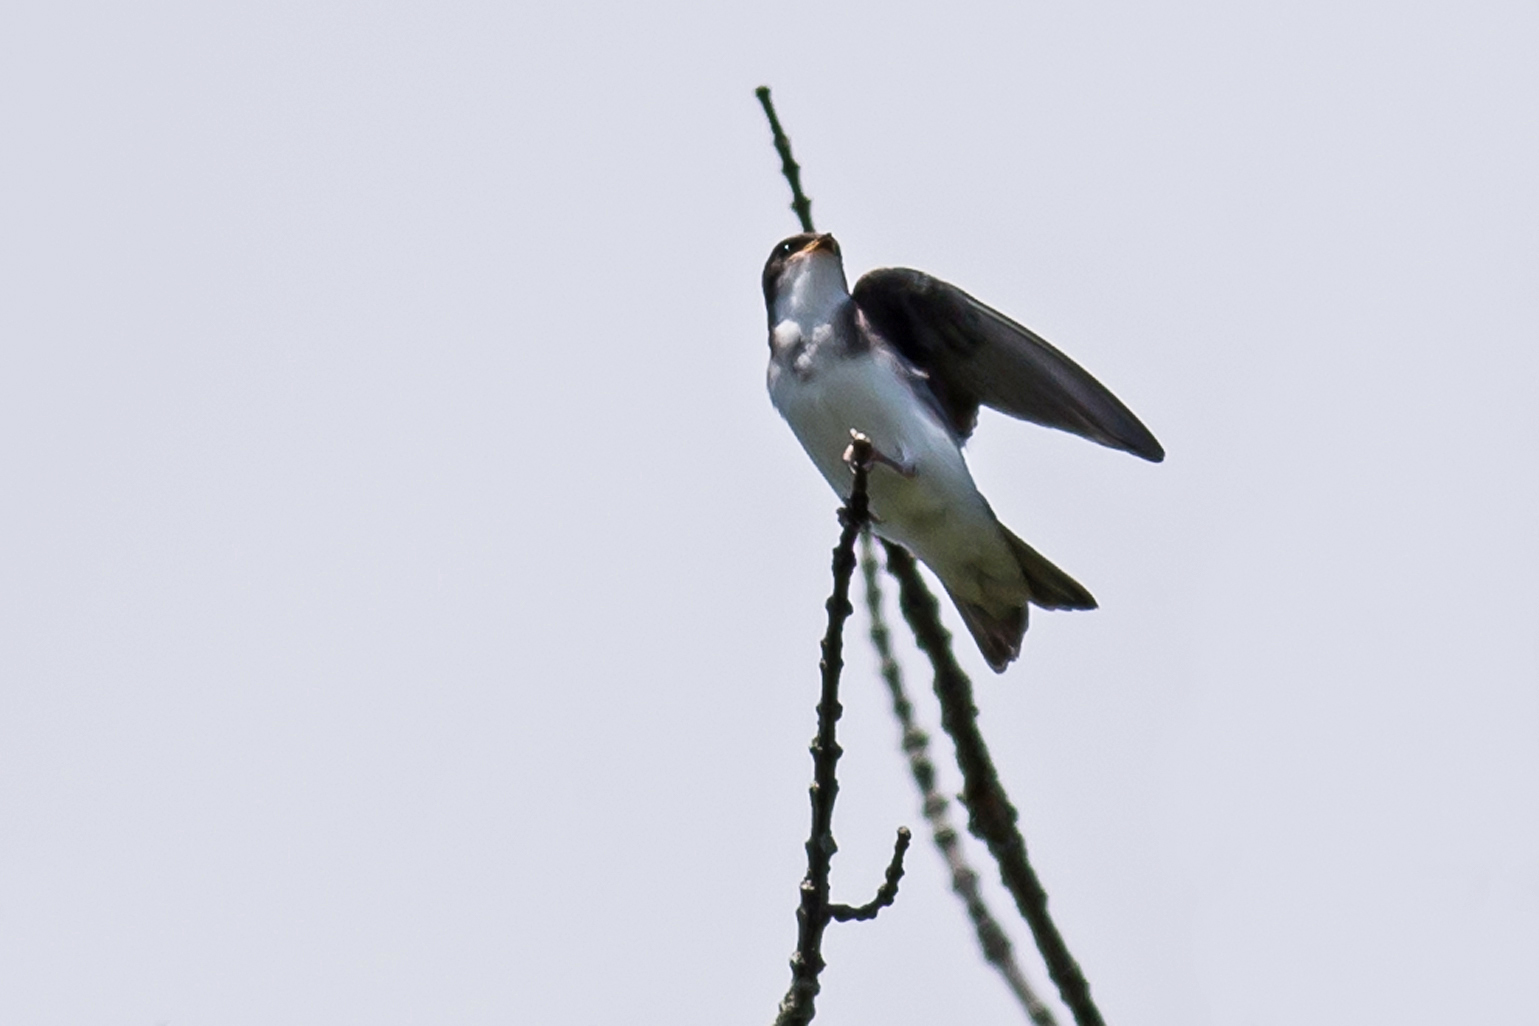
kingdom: Animalia
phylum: Chordata
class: Aves
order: Passeriformes
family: Hirundinidae
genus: Tachycineta
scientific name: Tachycineta bicolor
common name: Tree swallow
